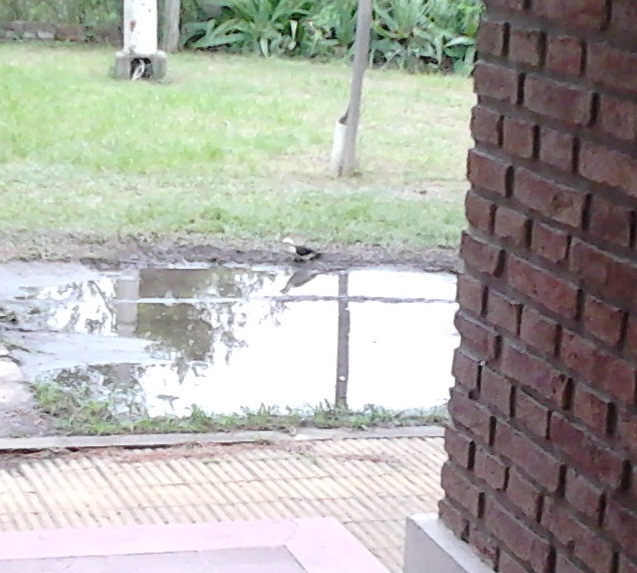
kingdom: Animalia
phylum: Chordata
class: Aves
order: Piciformes
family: Picidae
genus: Melanerpes
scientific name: Melanerpes candidus
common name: White woodpecker
